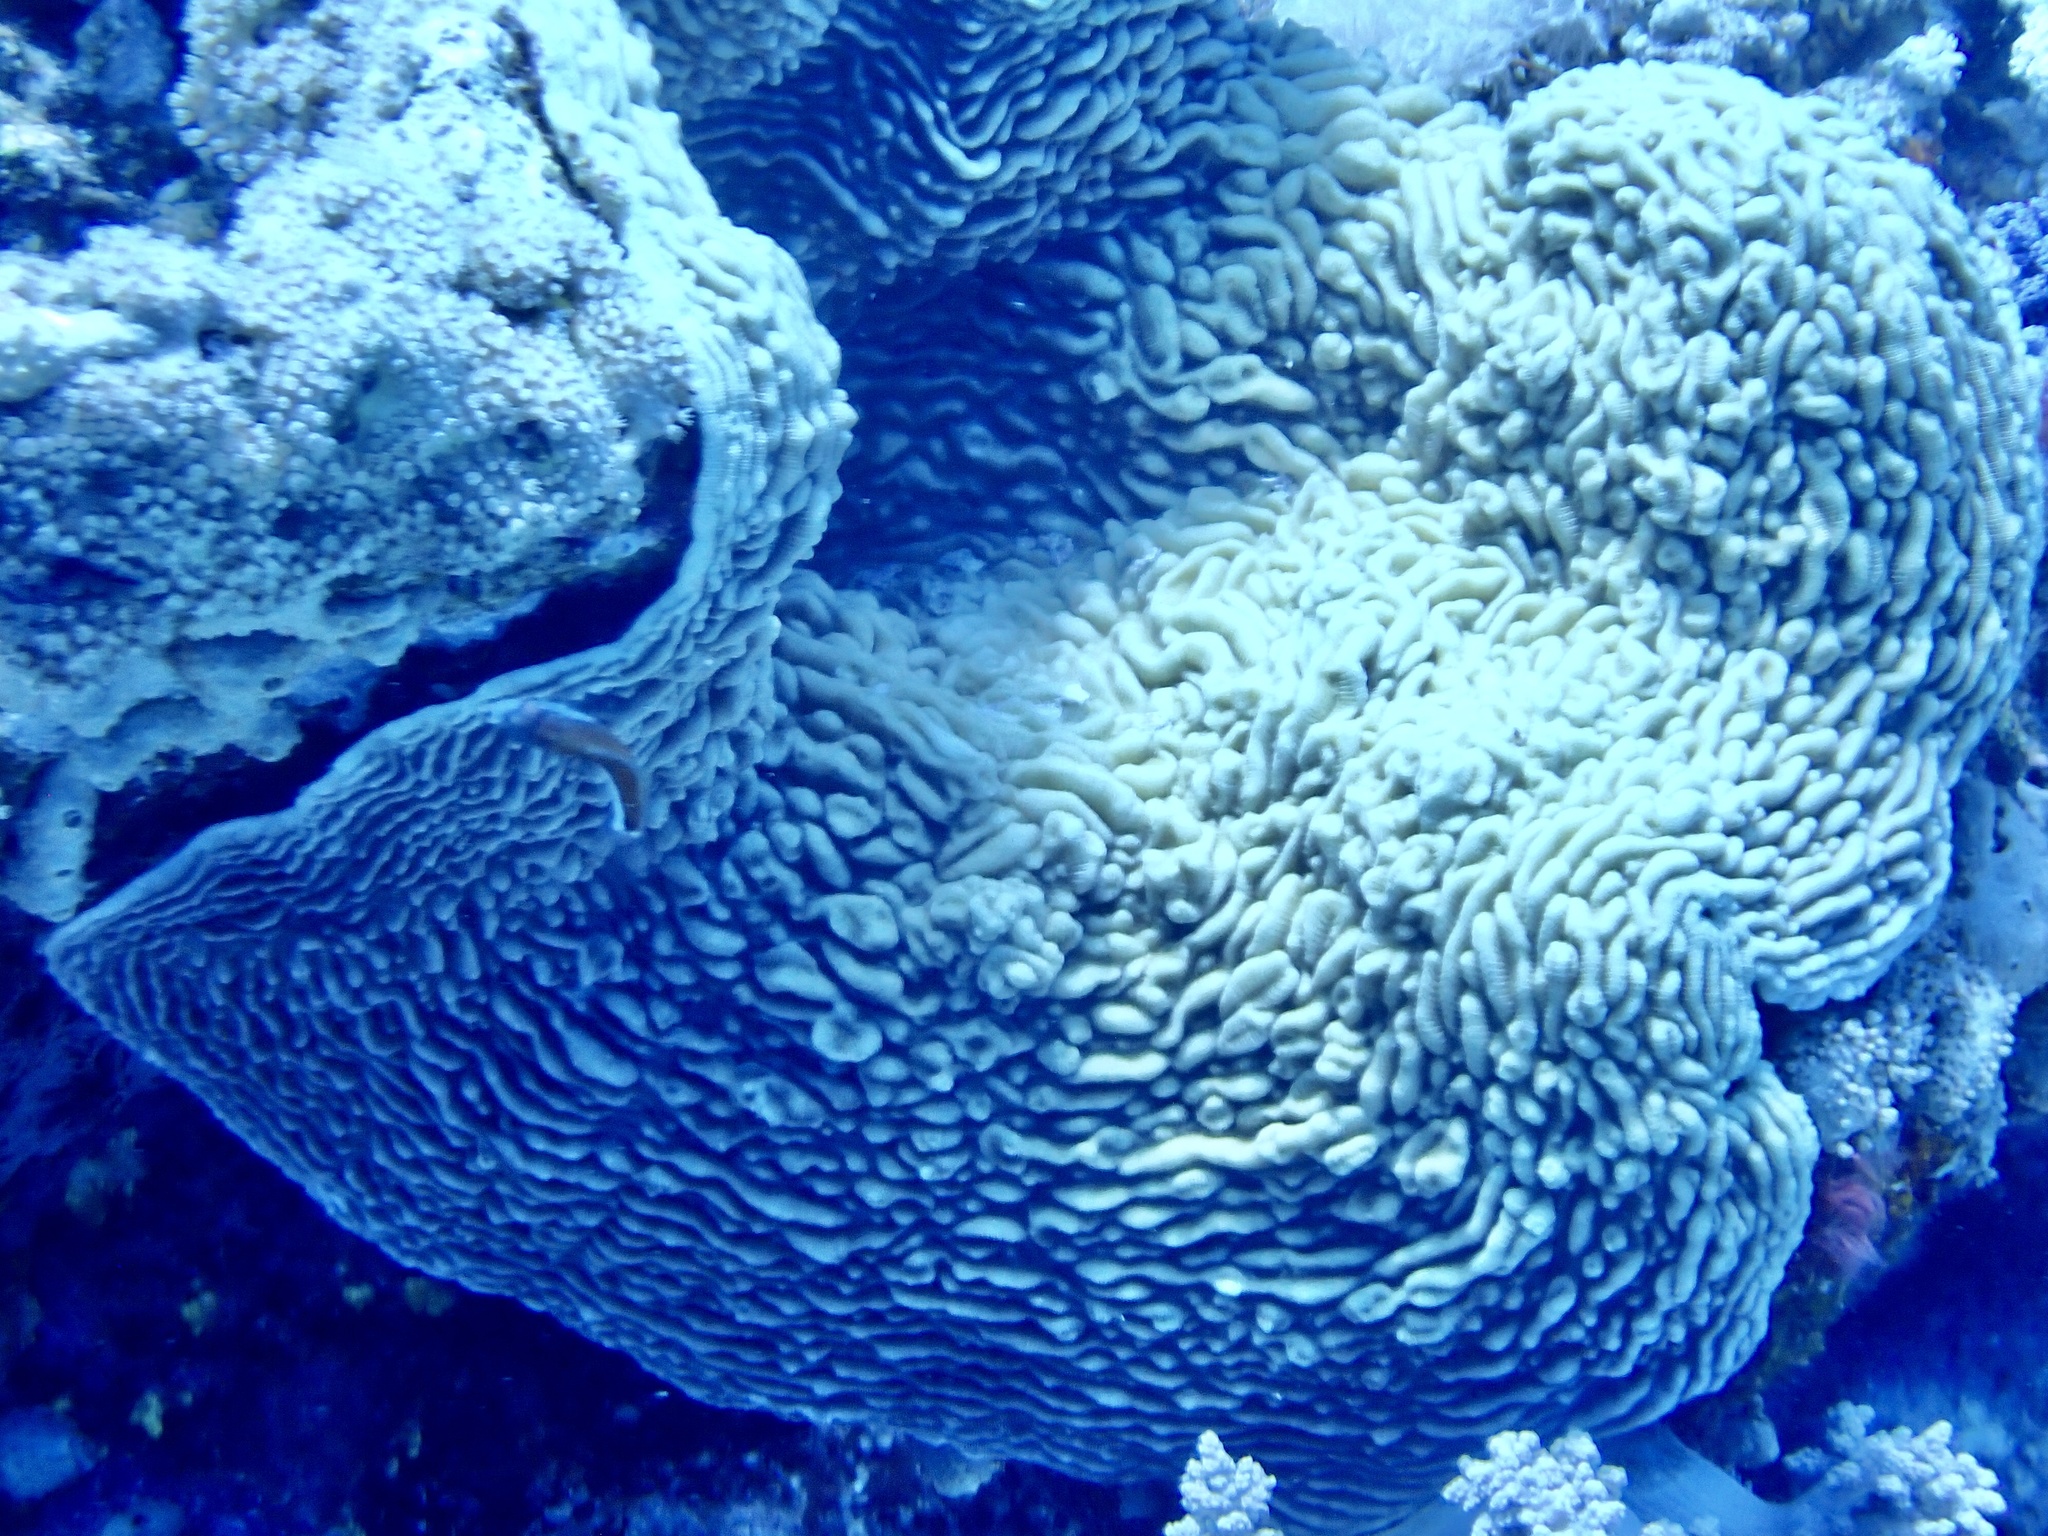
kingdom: Animalia
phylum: Cnidaria
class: Anthozoa
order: Scleractinia
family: Pachyseridae
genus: Pachyseris
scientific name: Pachyseris rugosa
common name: Serpent coral
